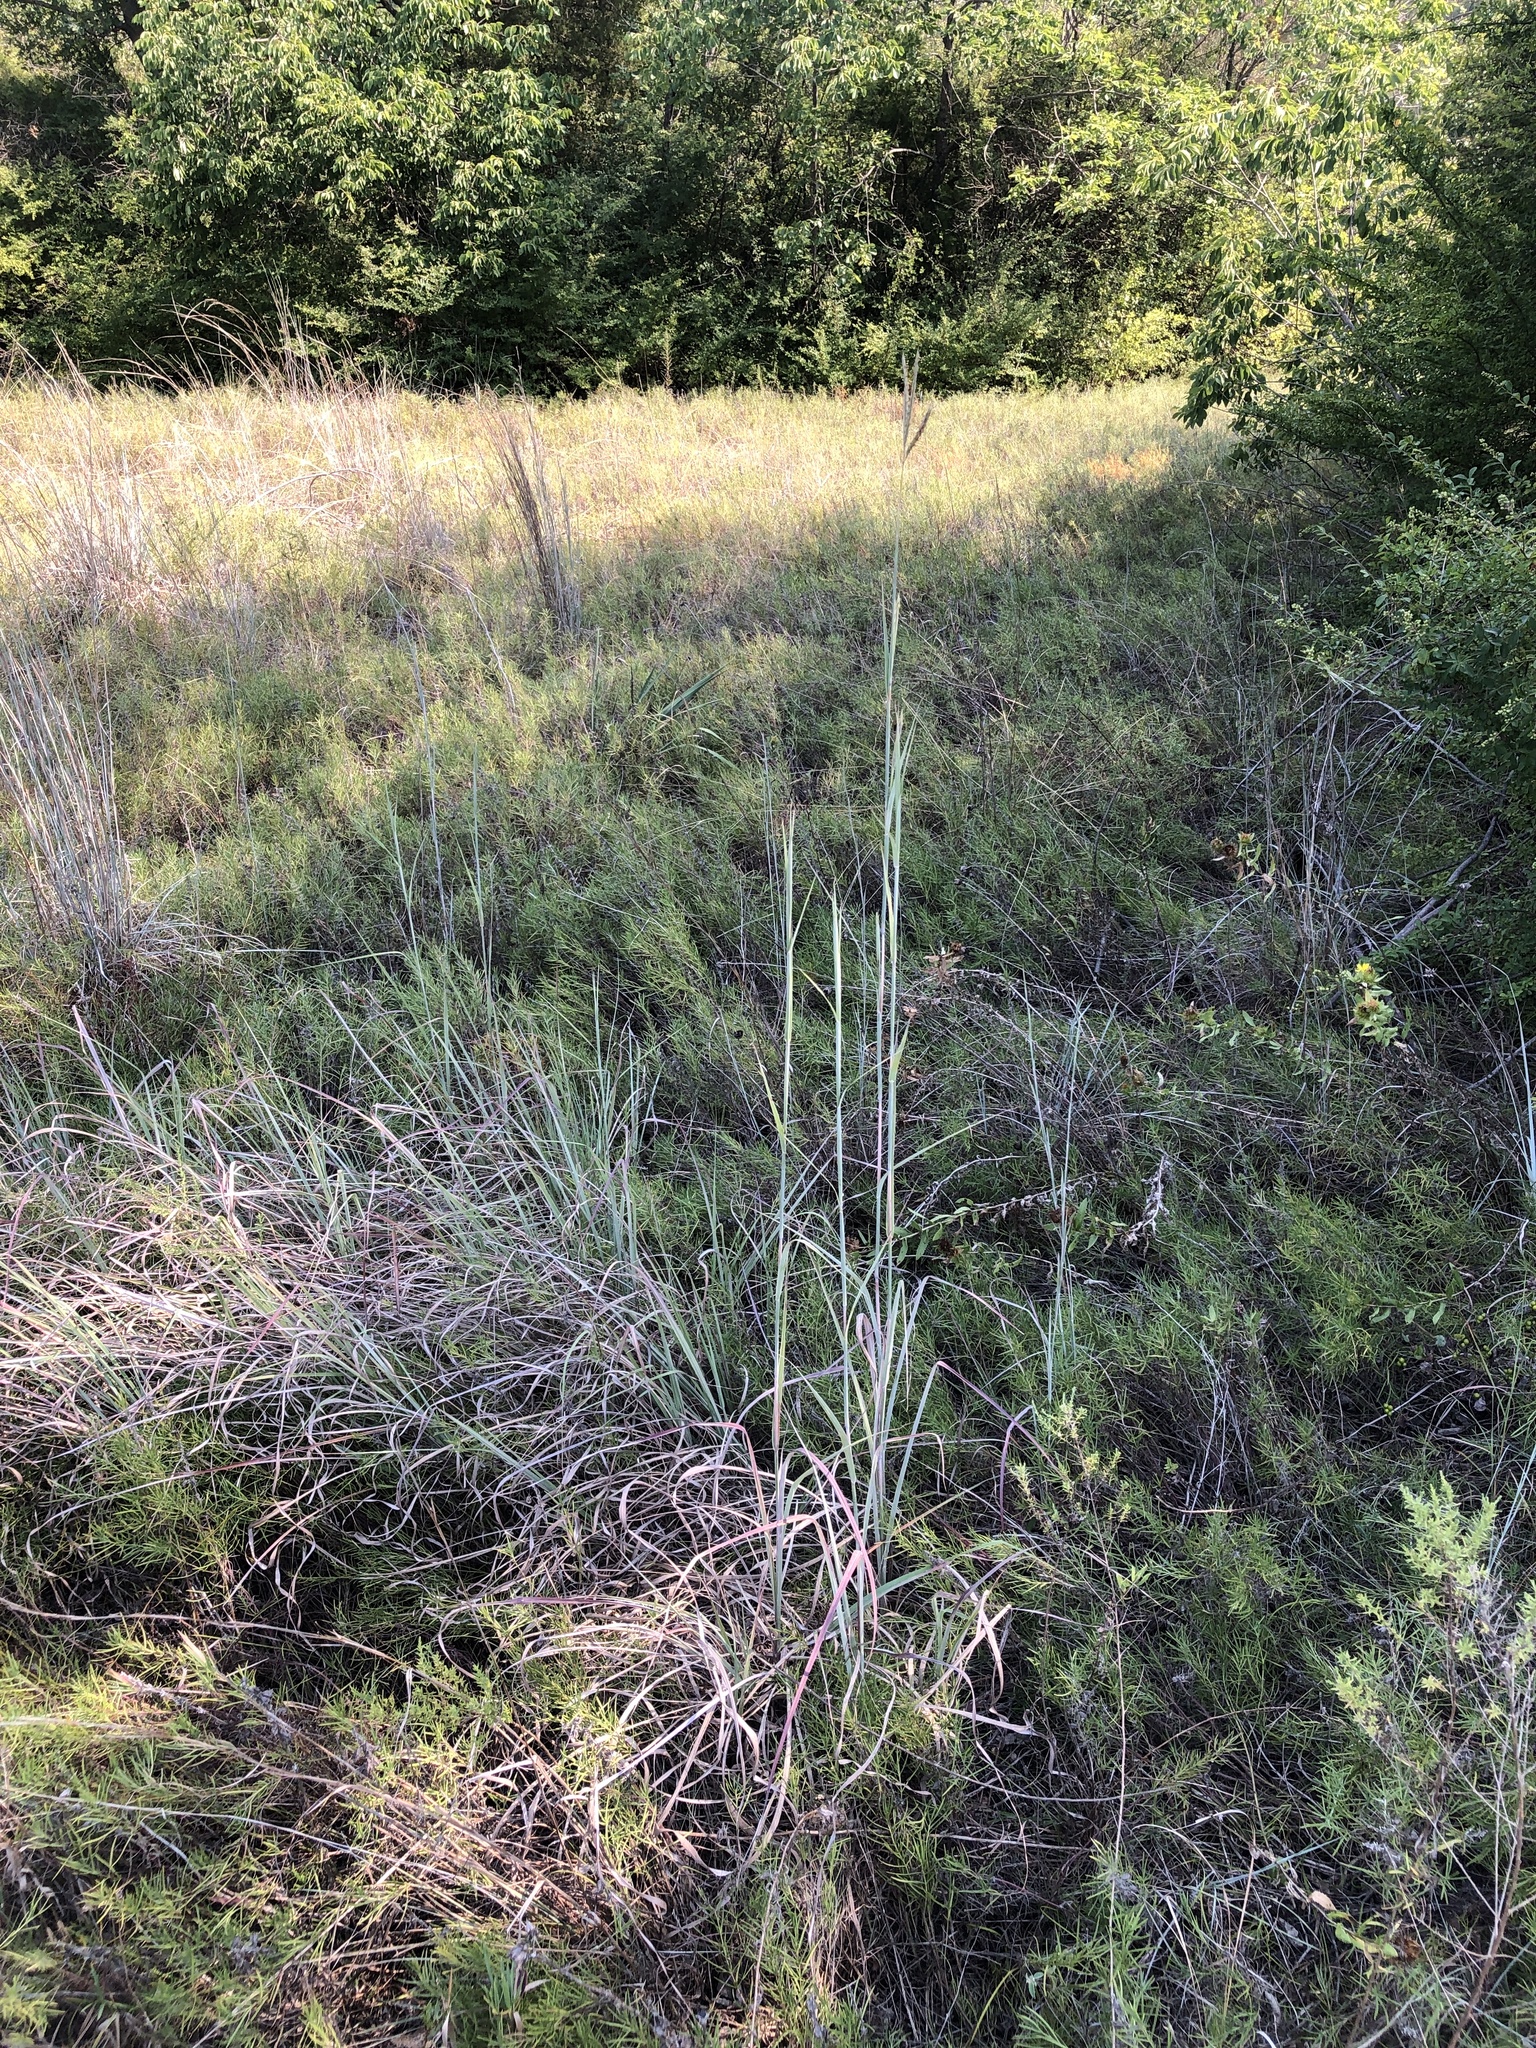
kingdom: Plantae
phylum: Tracheophyta
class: Liliopsida
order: Poales
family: Poaceae
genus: Andropogon
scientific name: Andropogon gerardi
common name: Big bluestem
